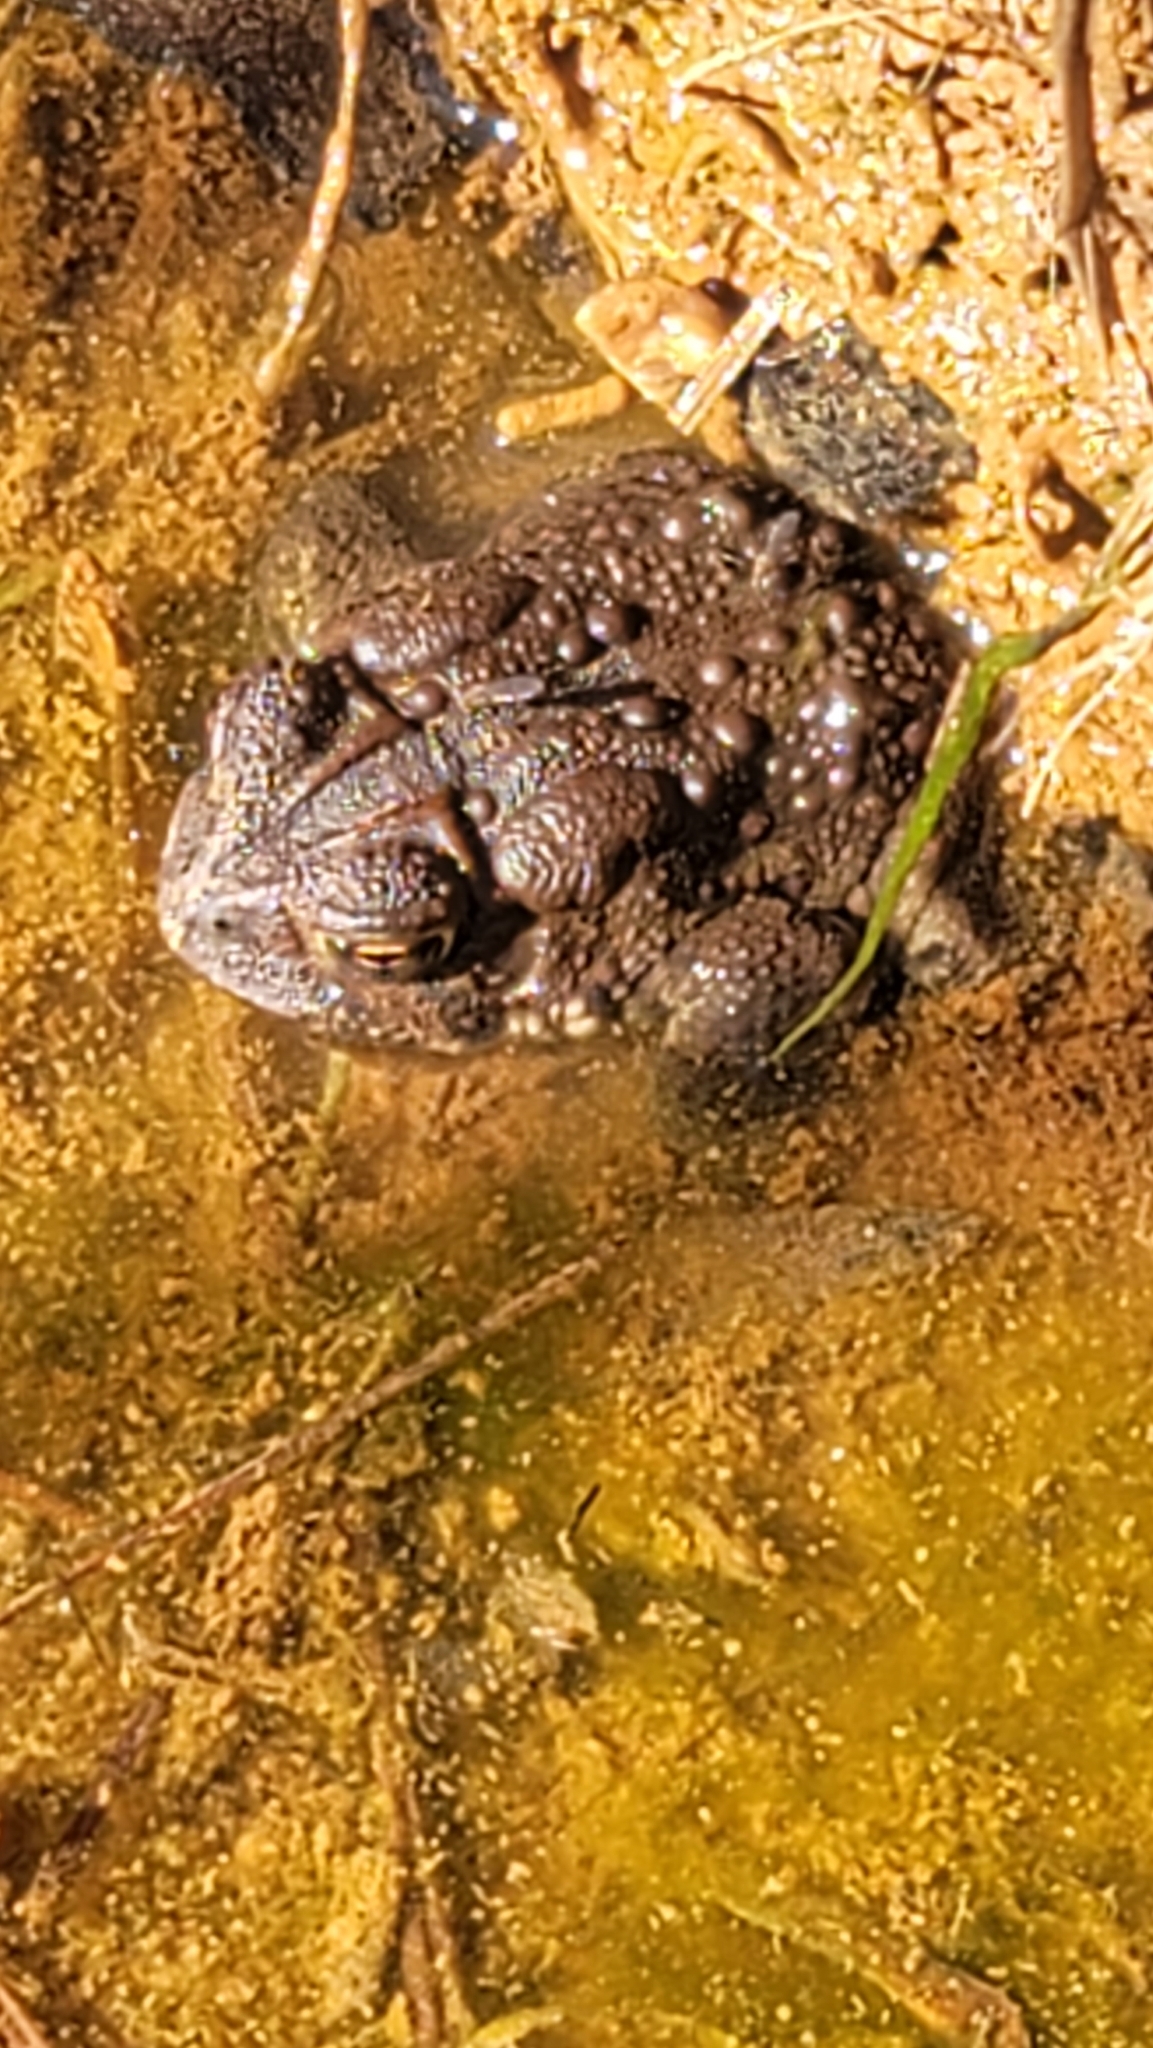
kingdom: Animalia
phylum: Chordata
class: Amphibia
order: Anura
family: Bufonidae
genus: Anaxyrus
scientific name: Anaxyrus americanus
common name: American toad
